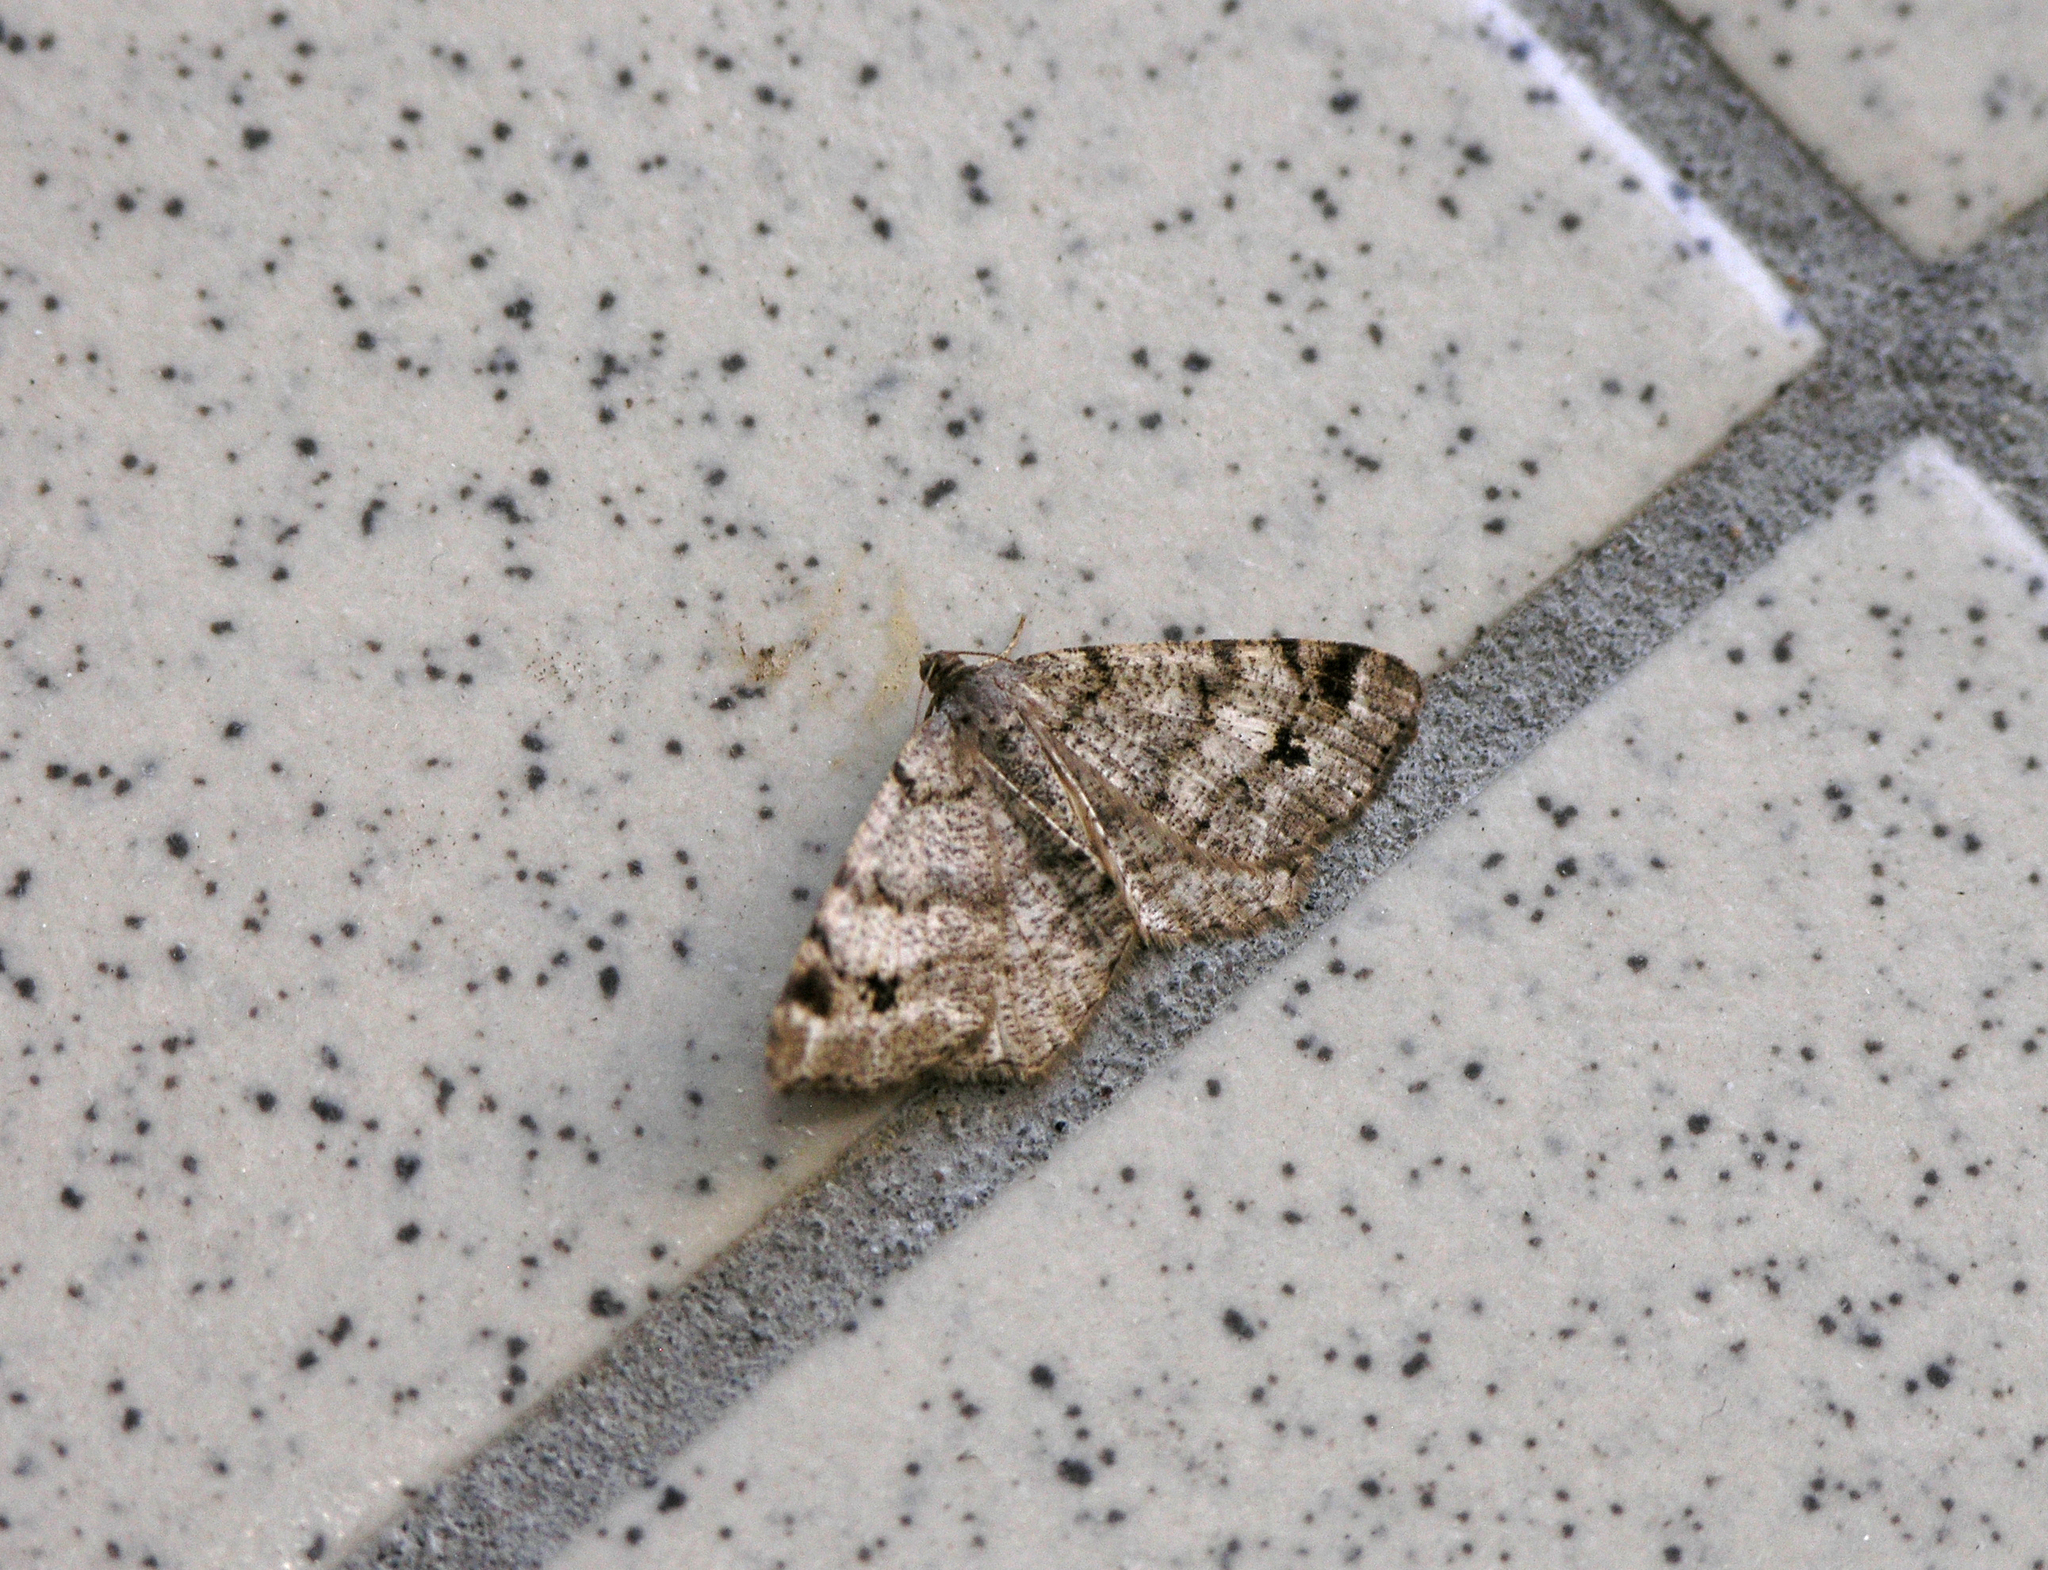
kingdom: Animalia
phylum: Arthropoda
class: Insecta
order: Lepidoptera
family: Geometridae
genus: Macaria
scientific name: Macaria signaria
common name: Dusky peacock
